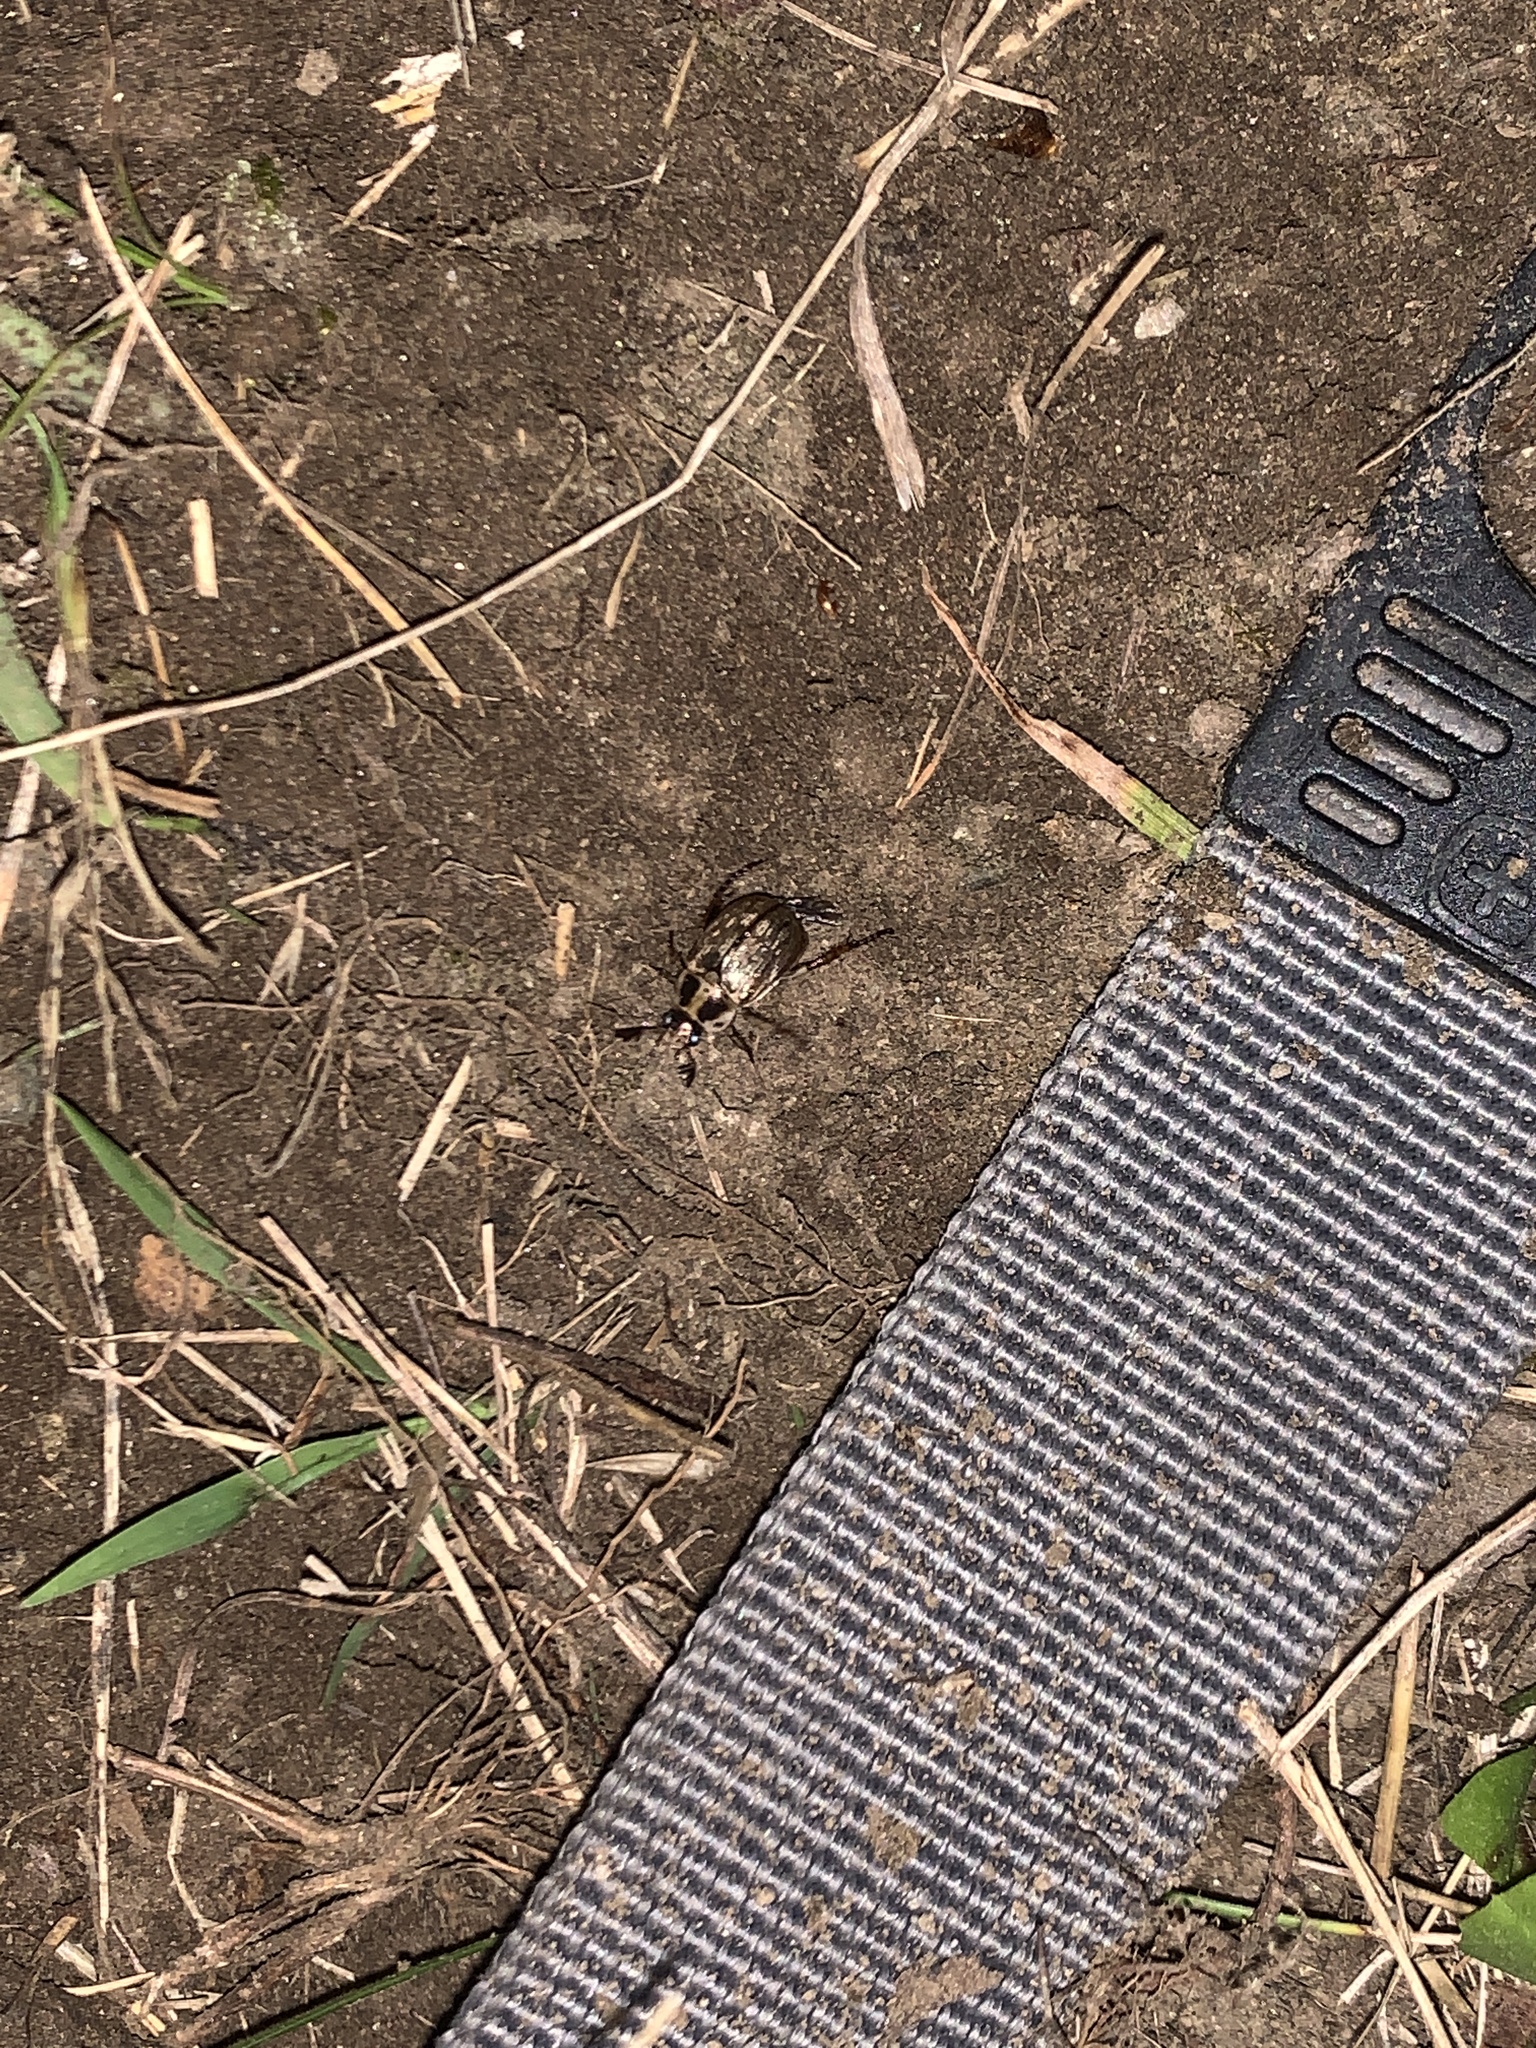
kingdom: Animalia
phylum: Arthropoda
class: Insecta
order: Coleoptera
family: Scarabaeidae
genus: Exomala
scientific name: Exomala orientalis
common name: Oriental beetle
